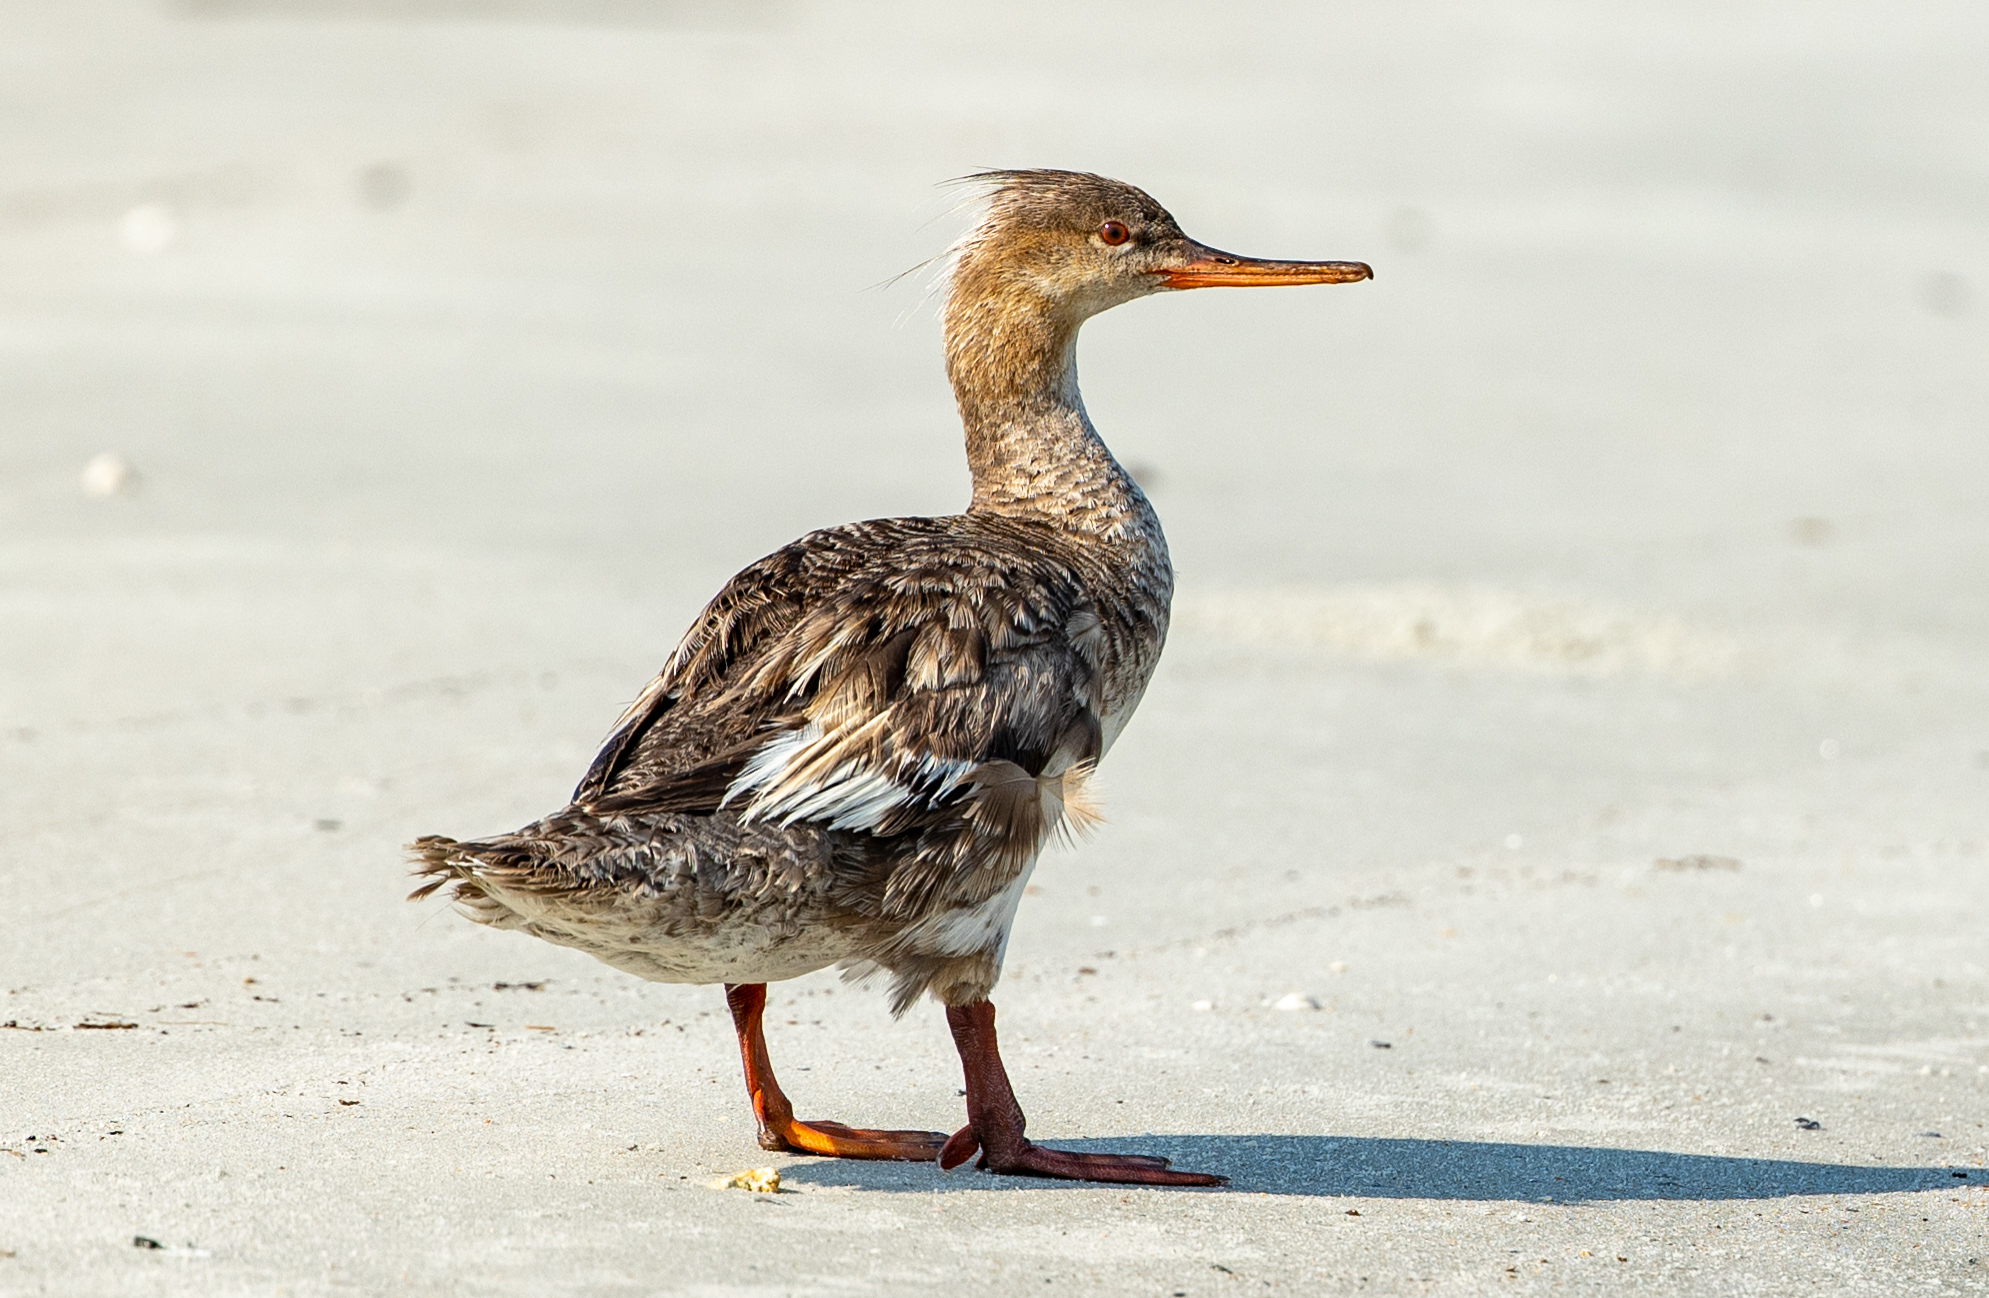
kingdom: Animalia
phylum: Chordata
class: Aves
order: Anseriformes
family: Anatidae
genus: Mergus
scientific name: Mergus serrator
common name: Red-breasted merganser
